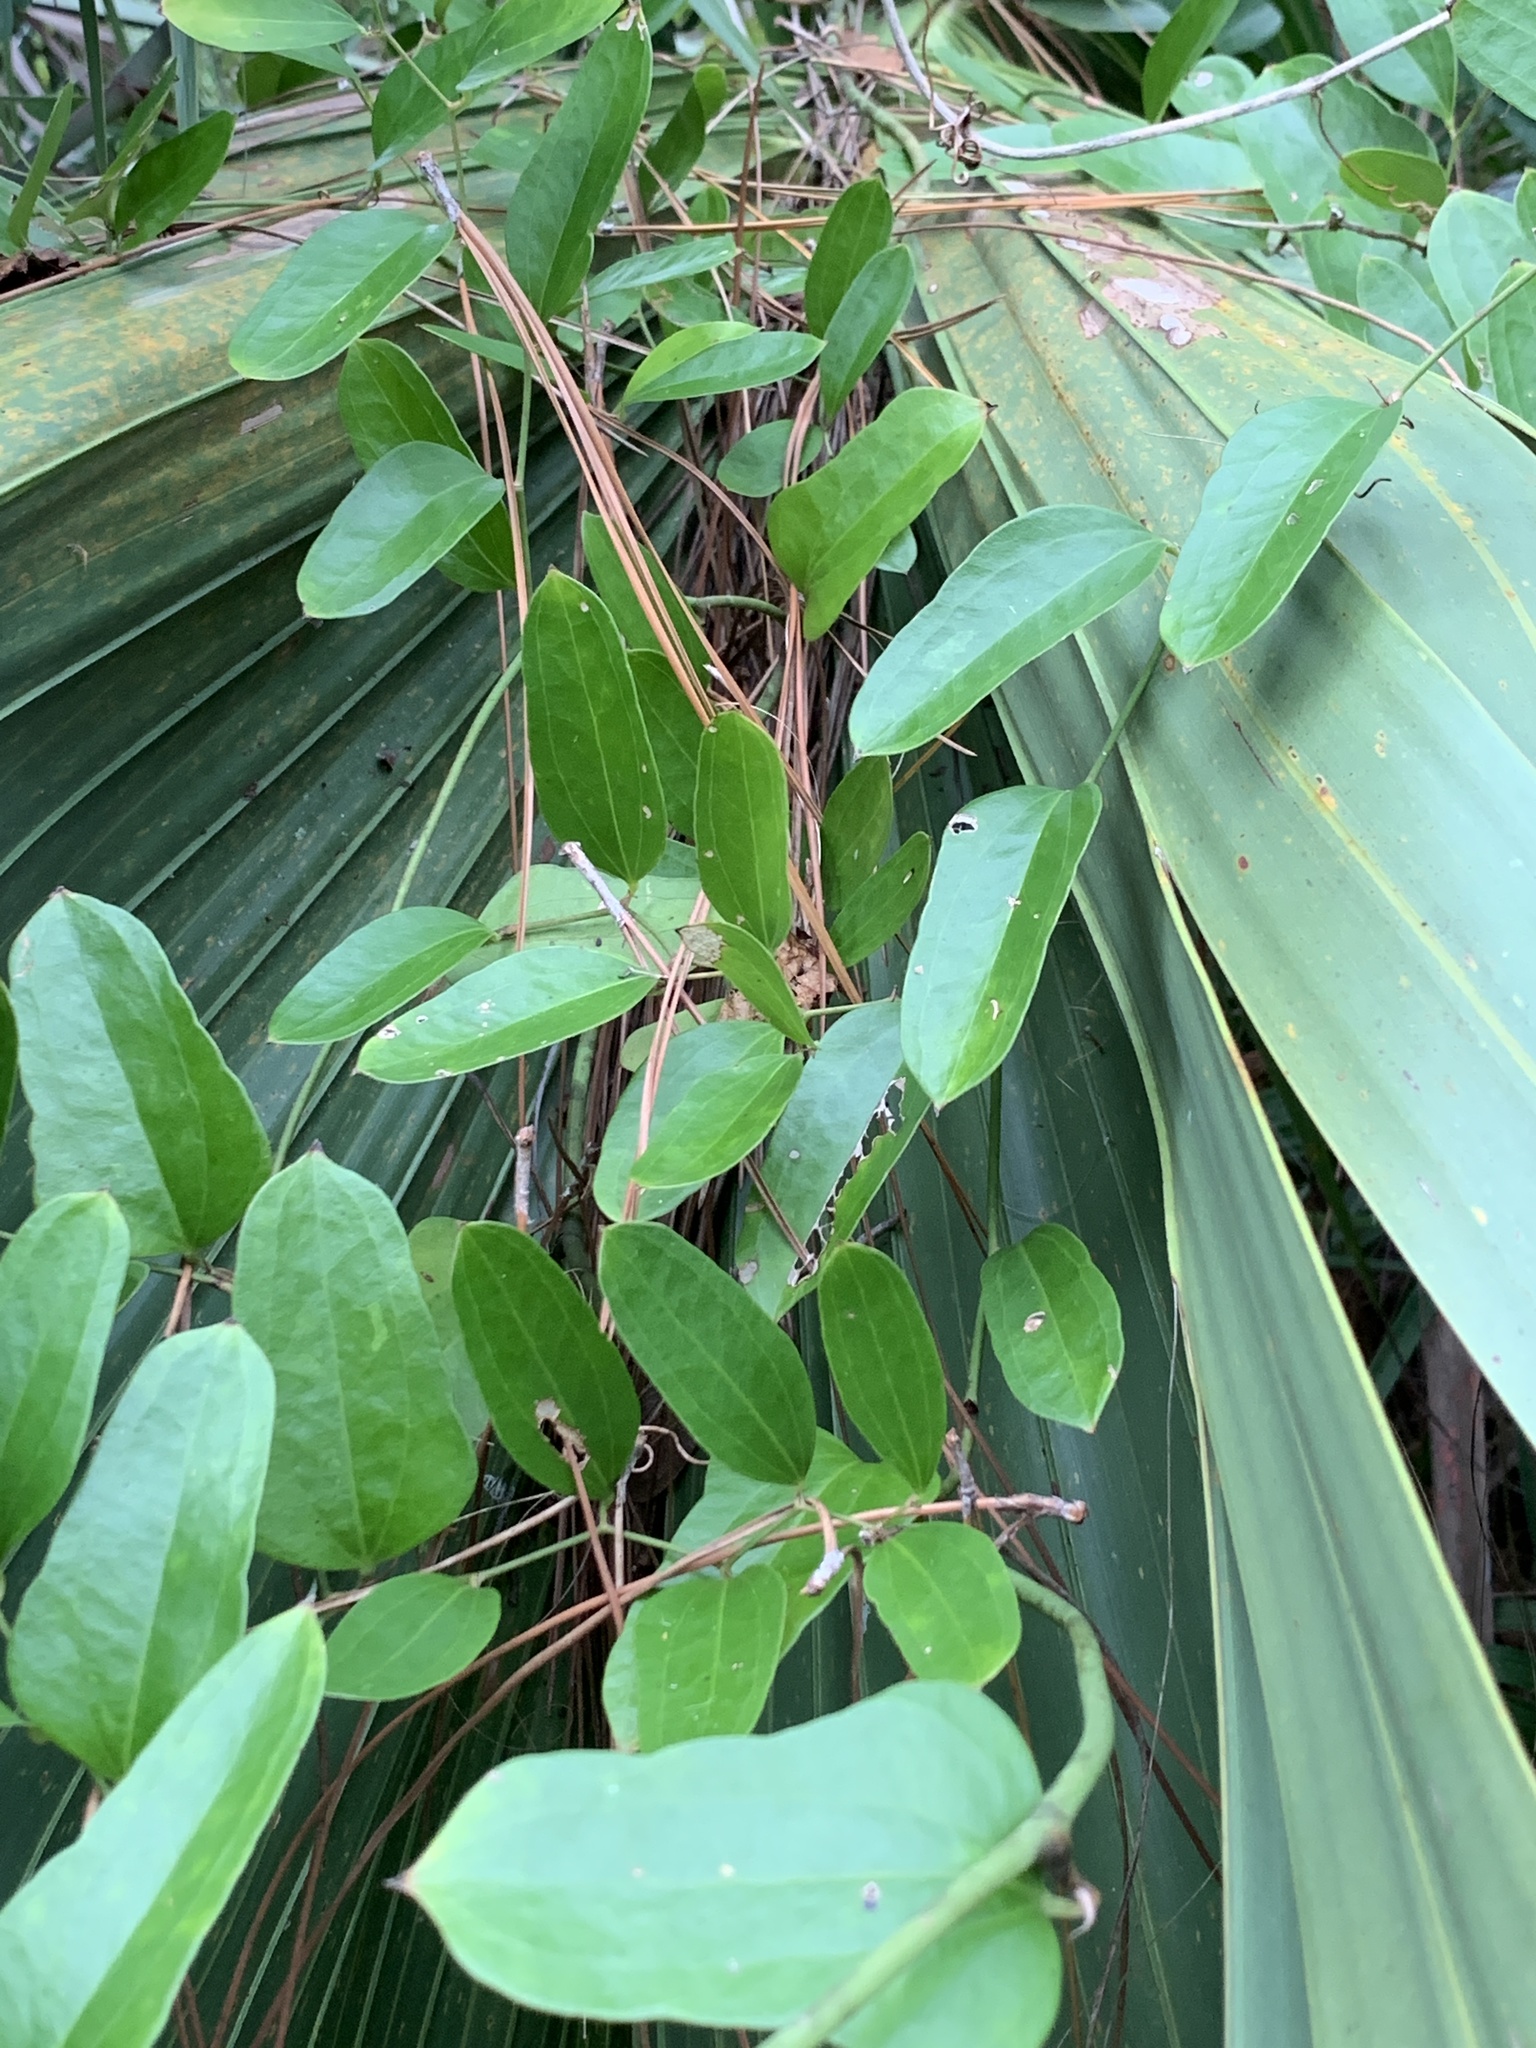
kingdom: Plantae
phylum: Tracheophyta
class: Liliopsida
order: Liliales
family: Smilacaceae
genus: Smilax
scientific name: Smilax auriculata
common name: Wild bamboo
